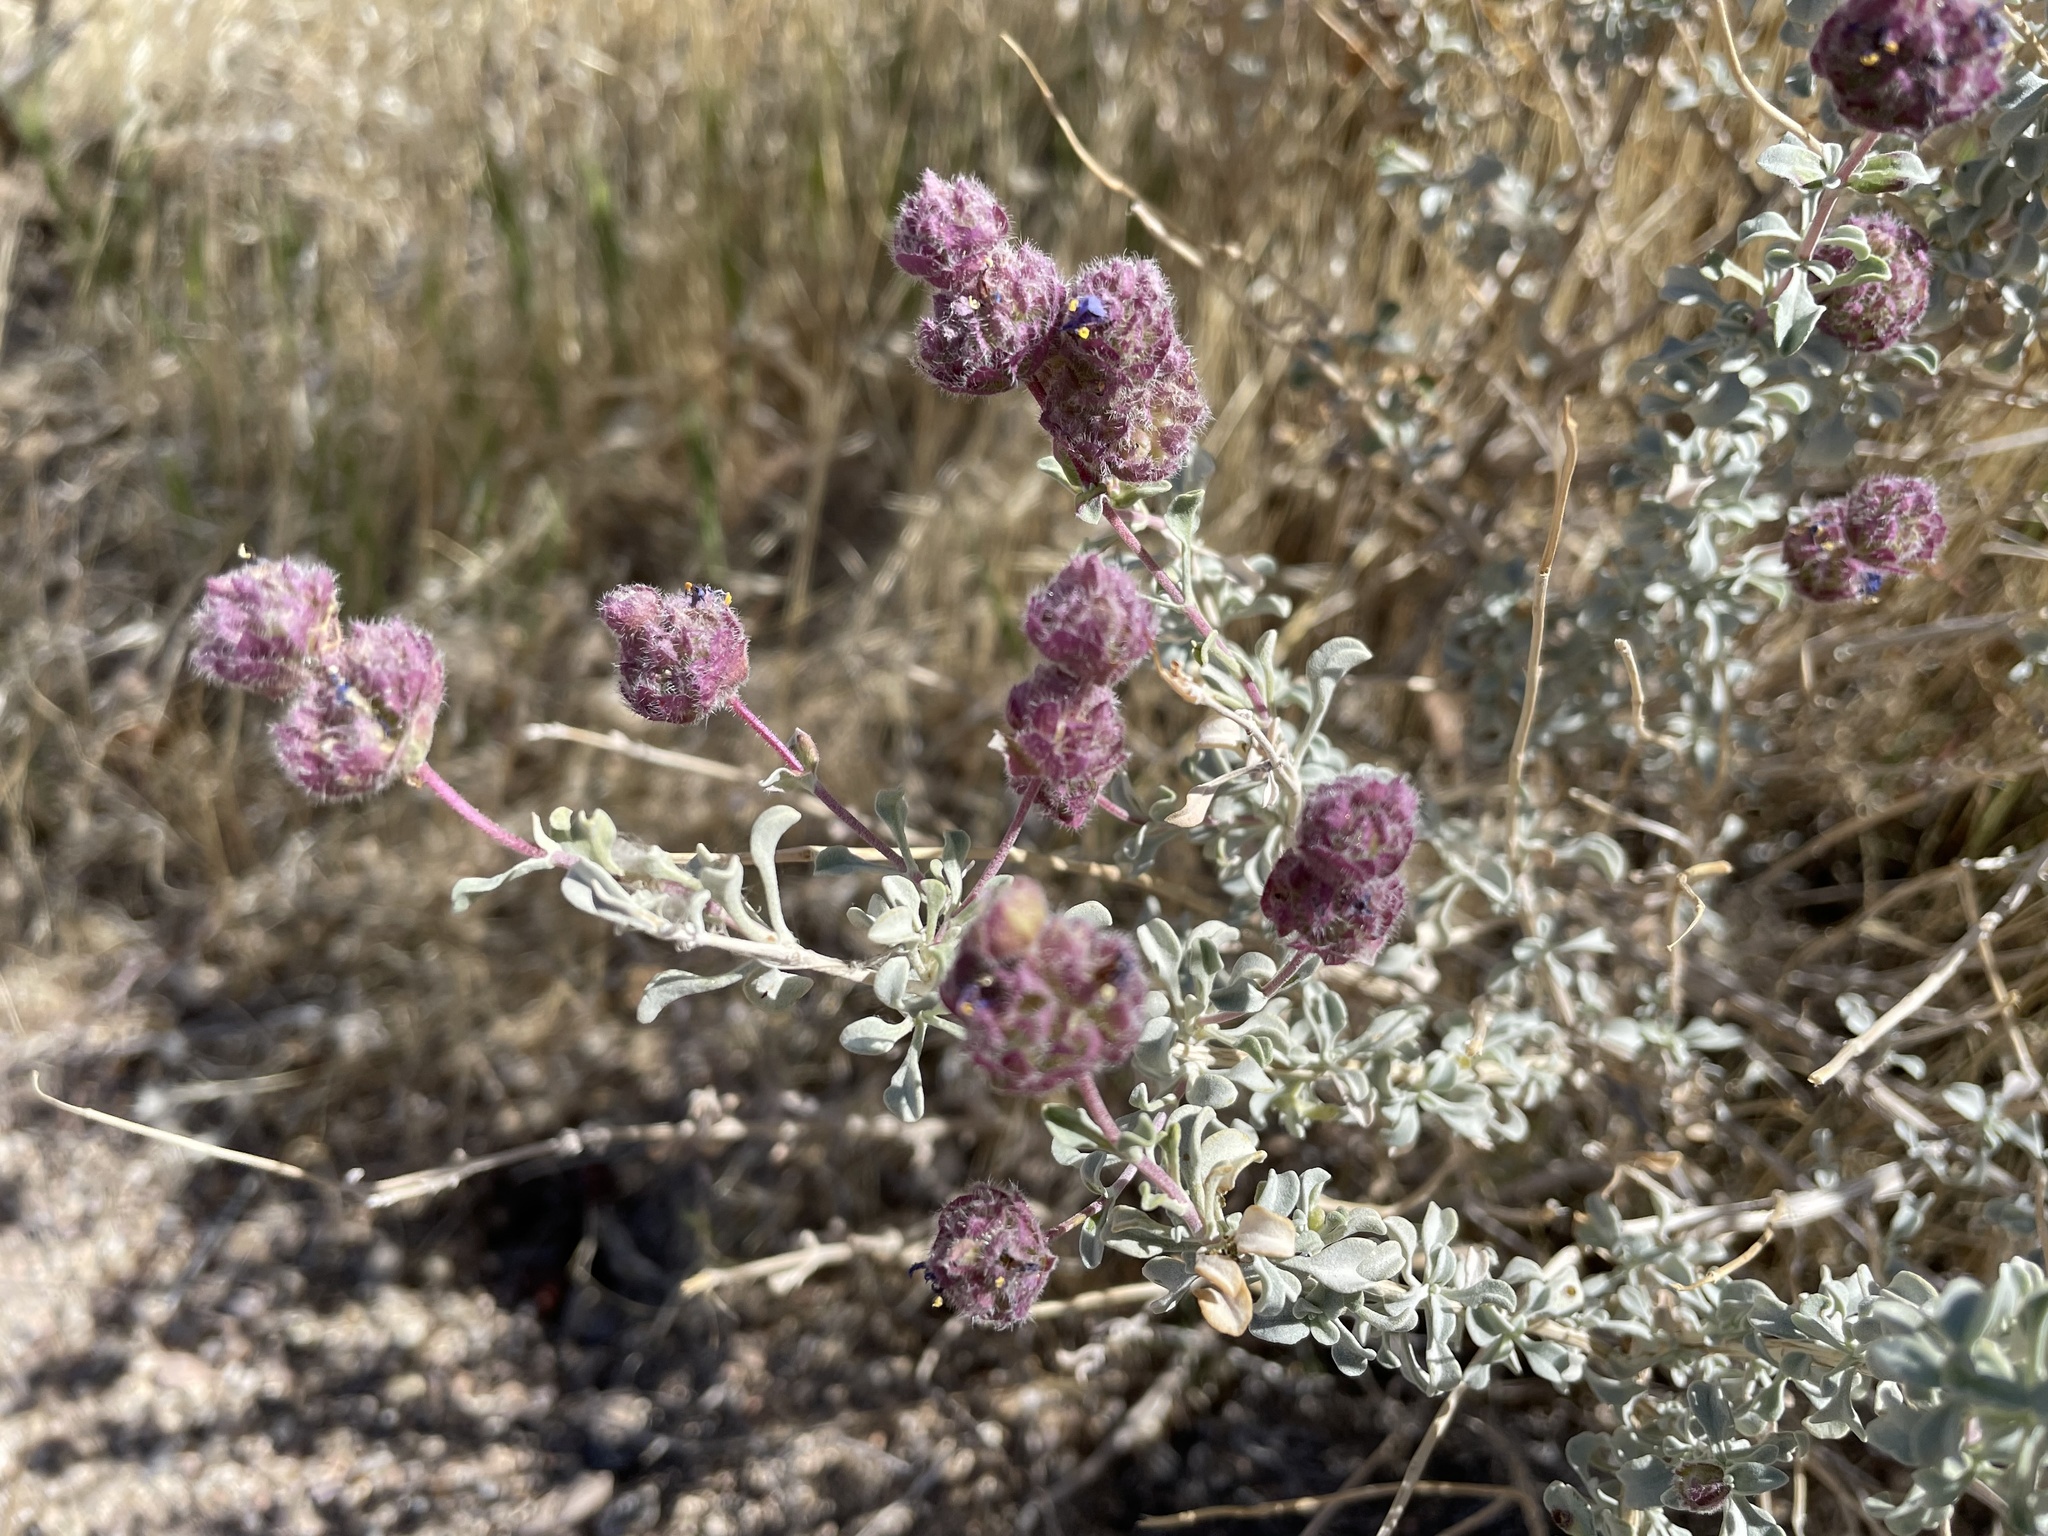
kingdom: Plantae
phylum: Tracheophyta
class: Magnoliopsida
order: Lamiales
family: Lamiaceae
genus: Salvia
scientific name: Salvia dorrii
